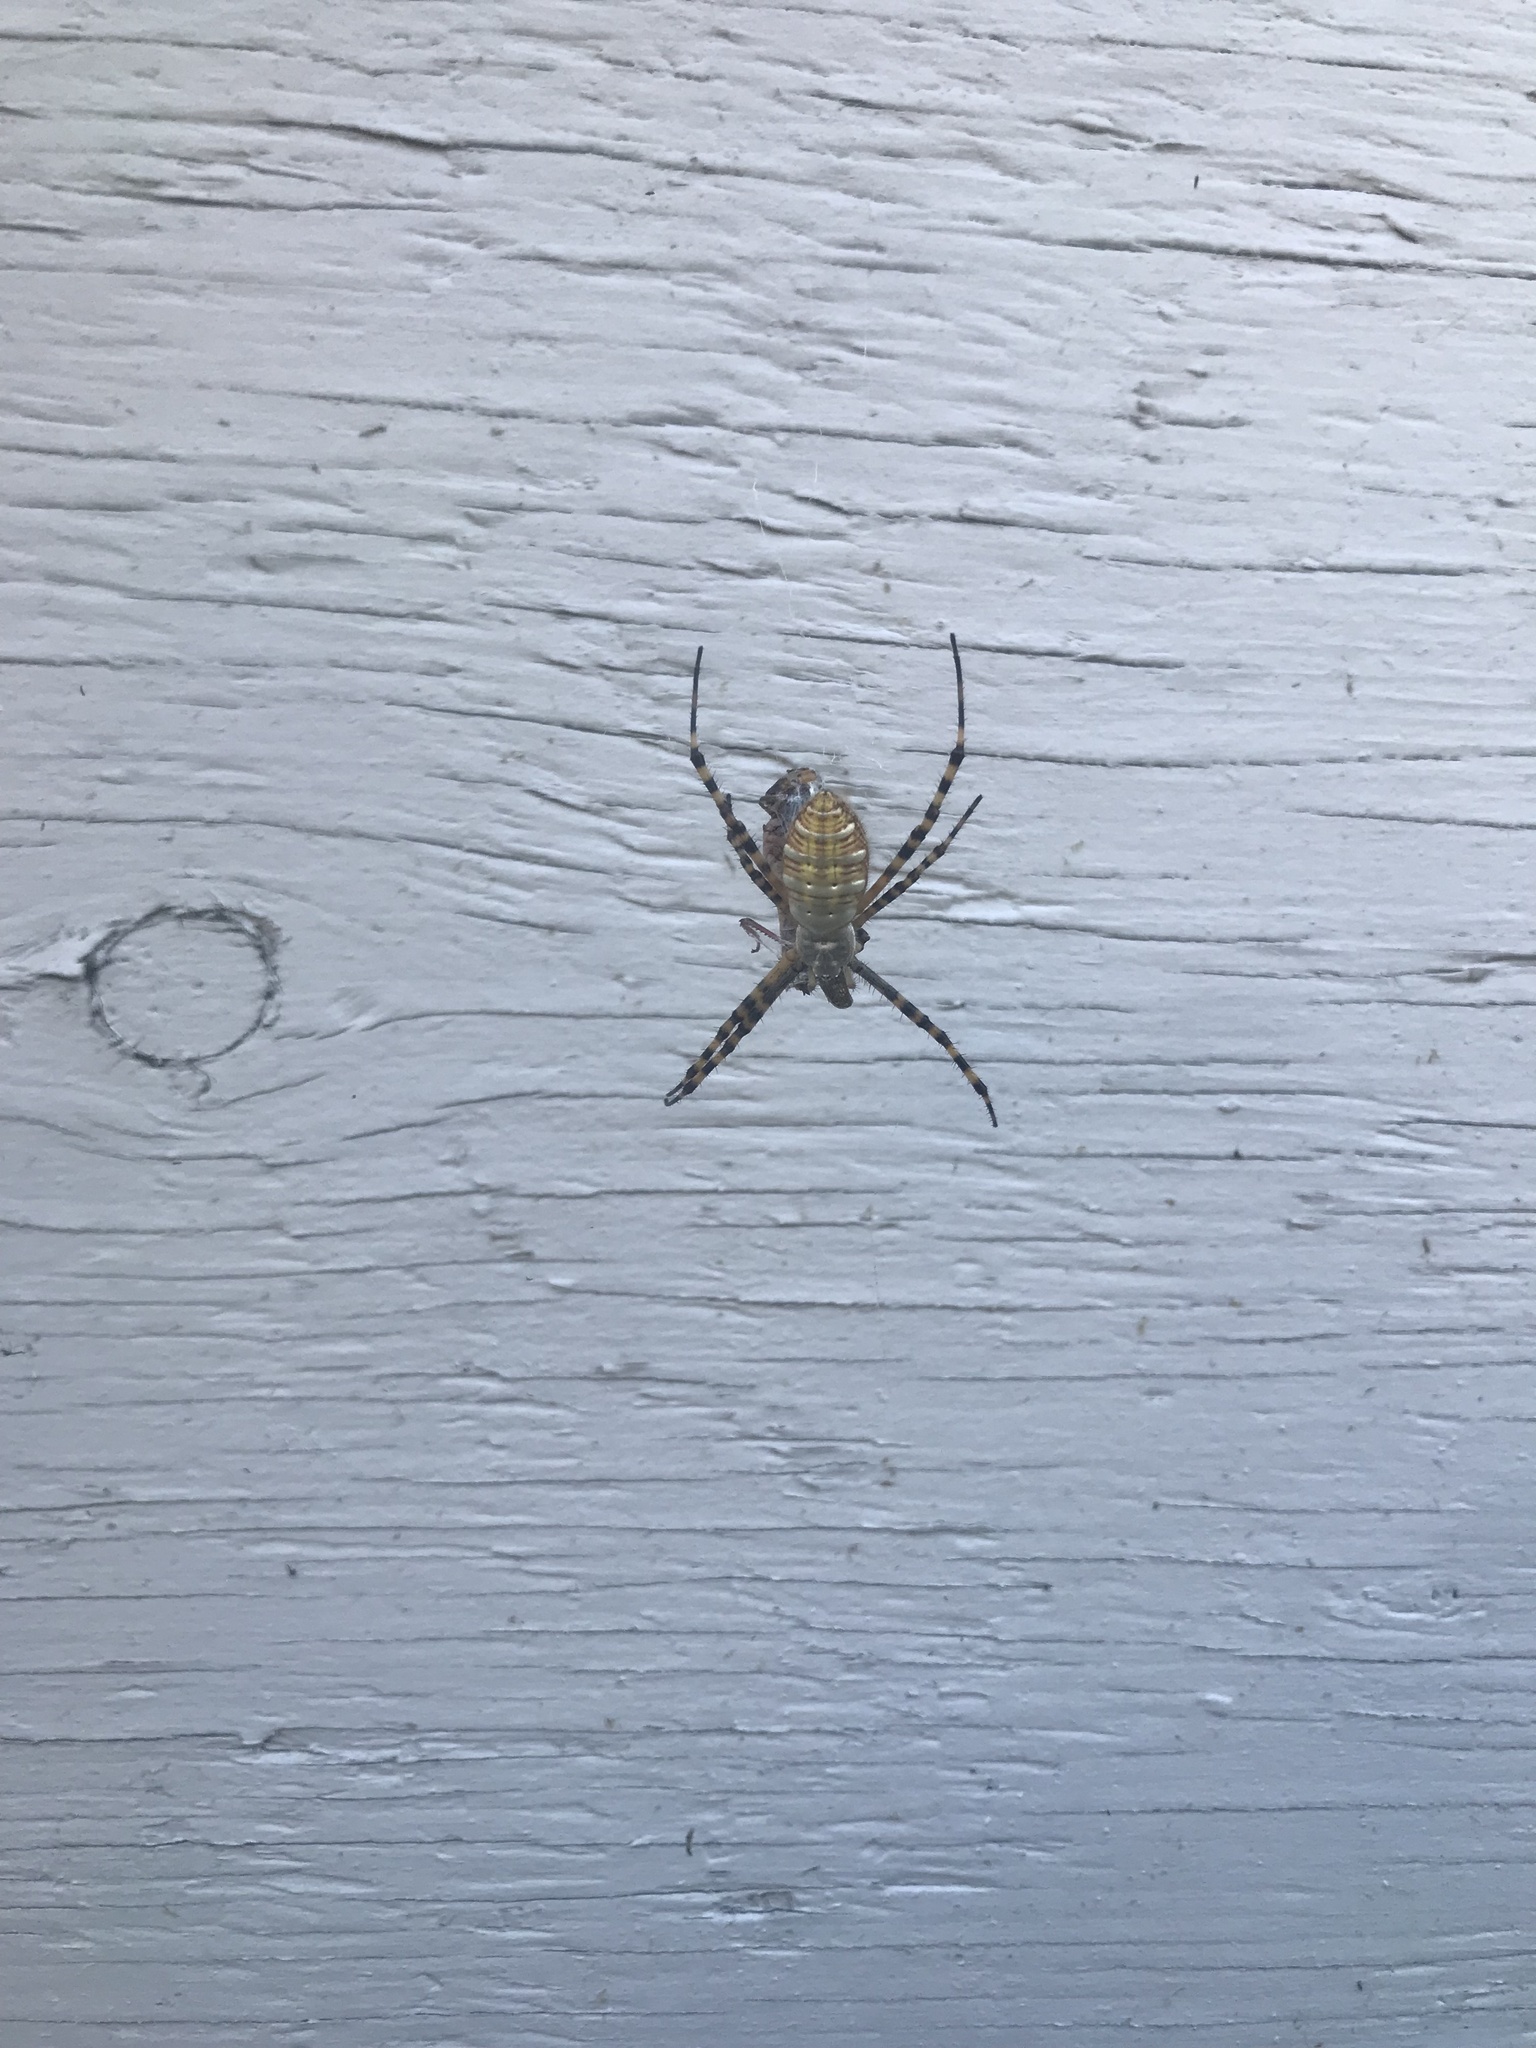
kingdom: Animalia
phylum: Arthropoda
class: Arachnida
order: Araneae
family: Araneidae
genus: Argiope
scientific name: Argiope trifasciata
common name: Banded garden spider
